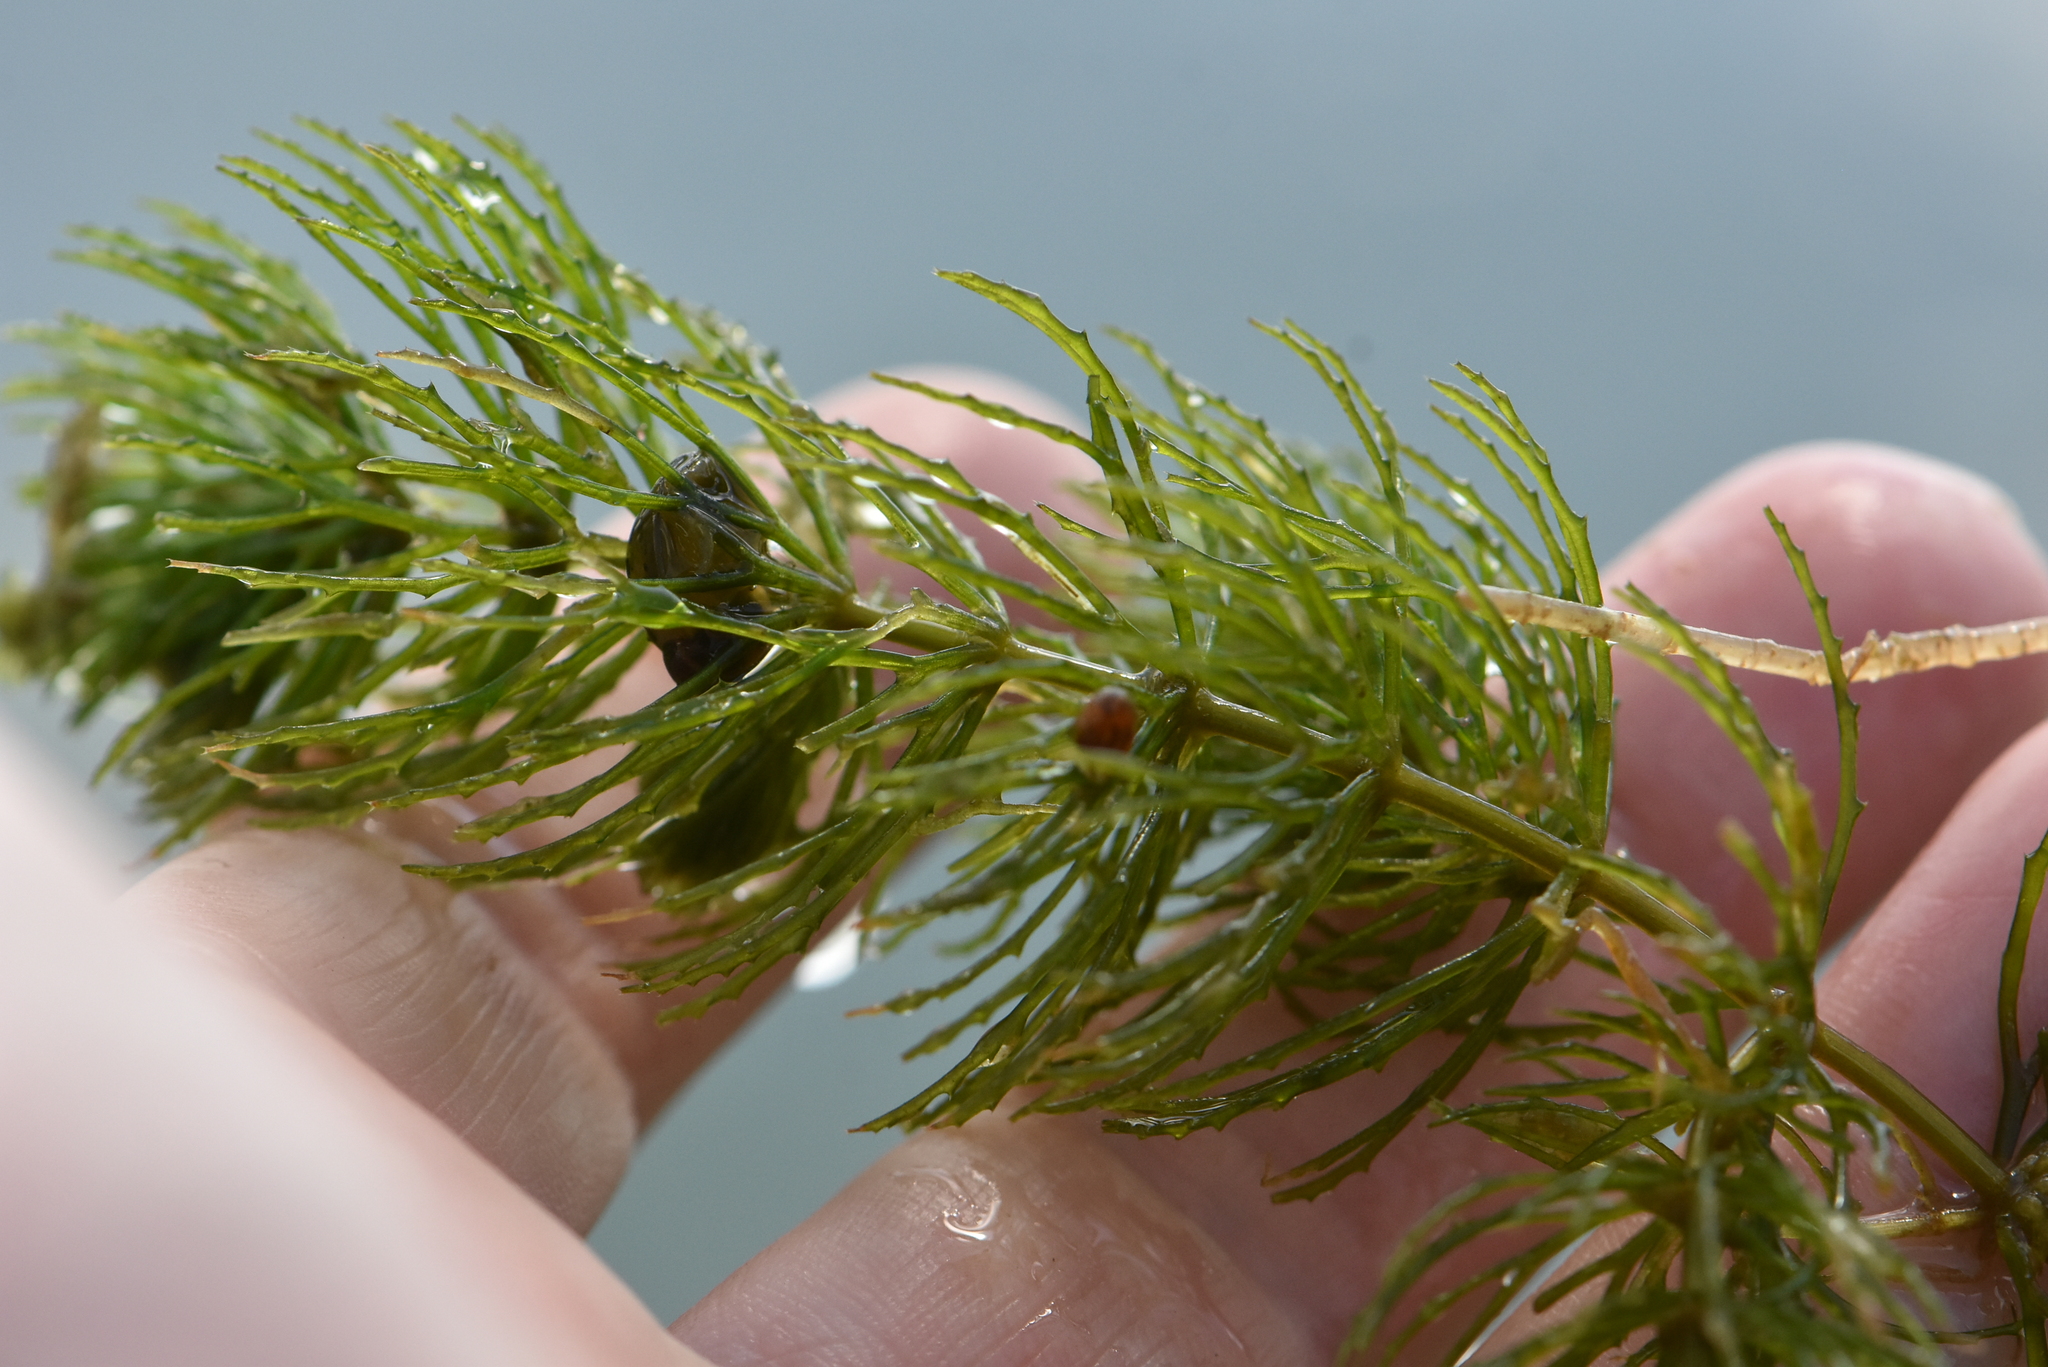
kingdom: Plantae
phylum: Tracheophyta
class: Magnoliopsida
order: Ceratophyllales
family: Ceratophyllaceae
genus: Ceratophyllum
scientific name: Ceratophyllum demersum
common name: Rigid hornwort
